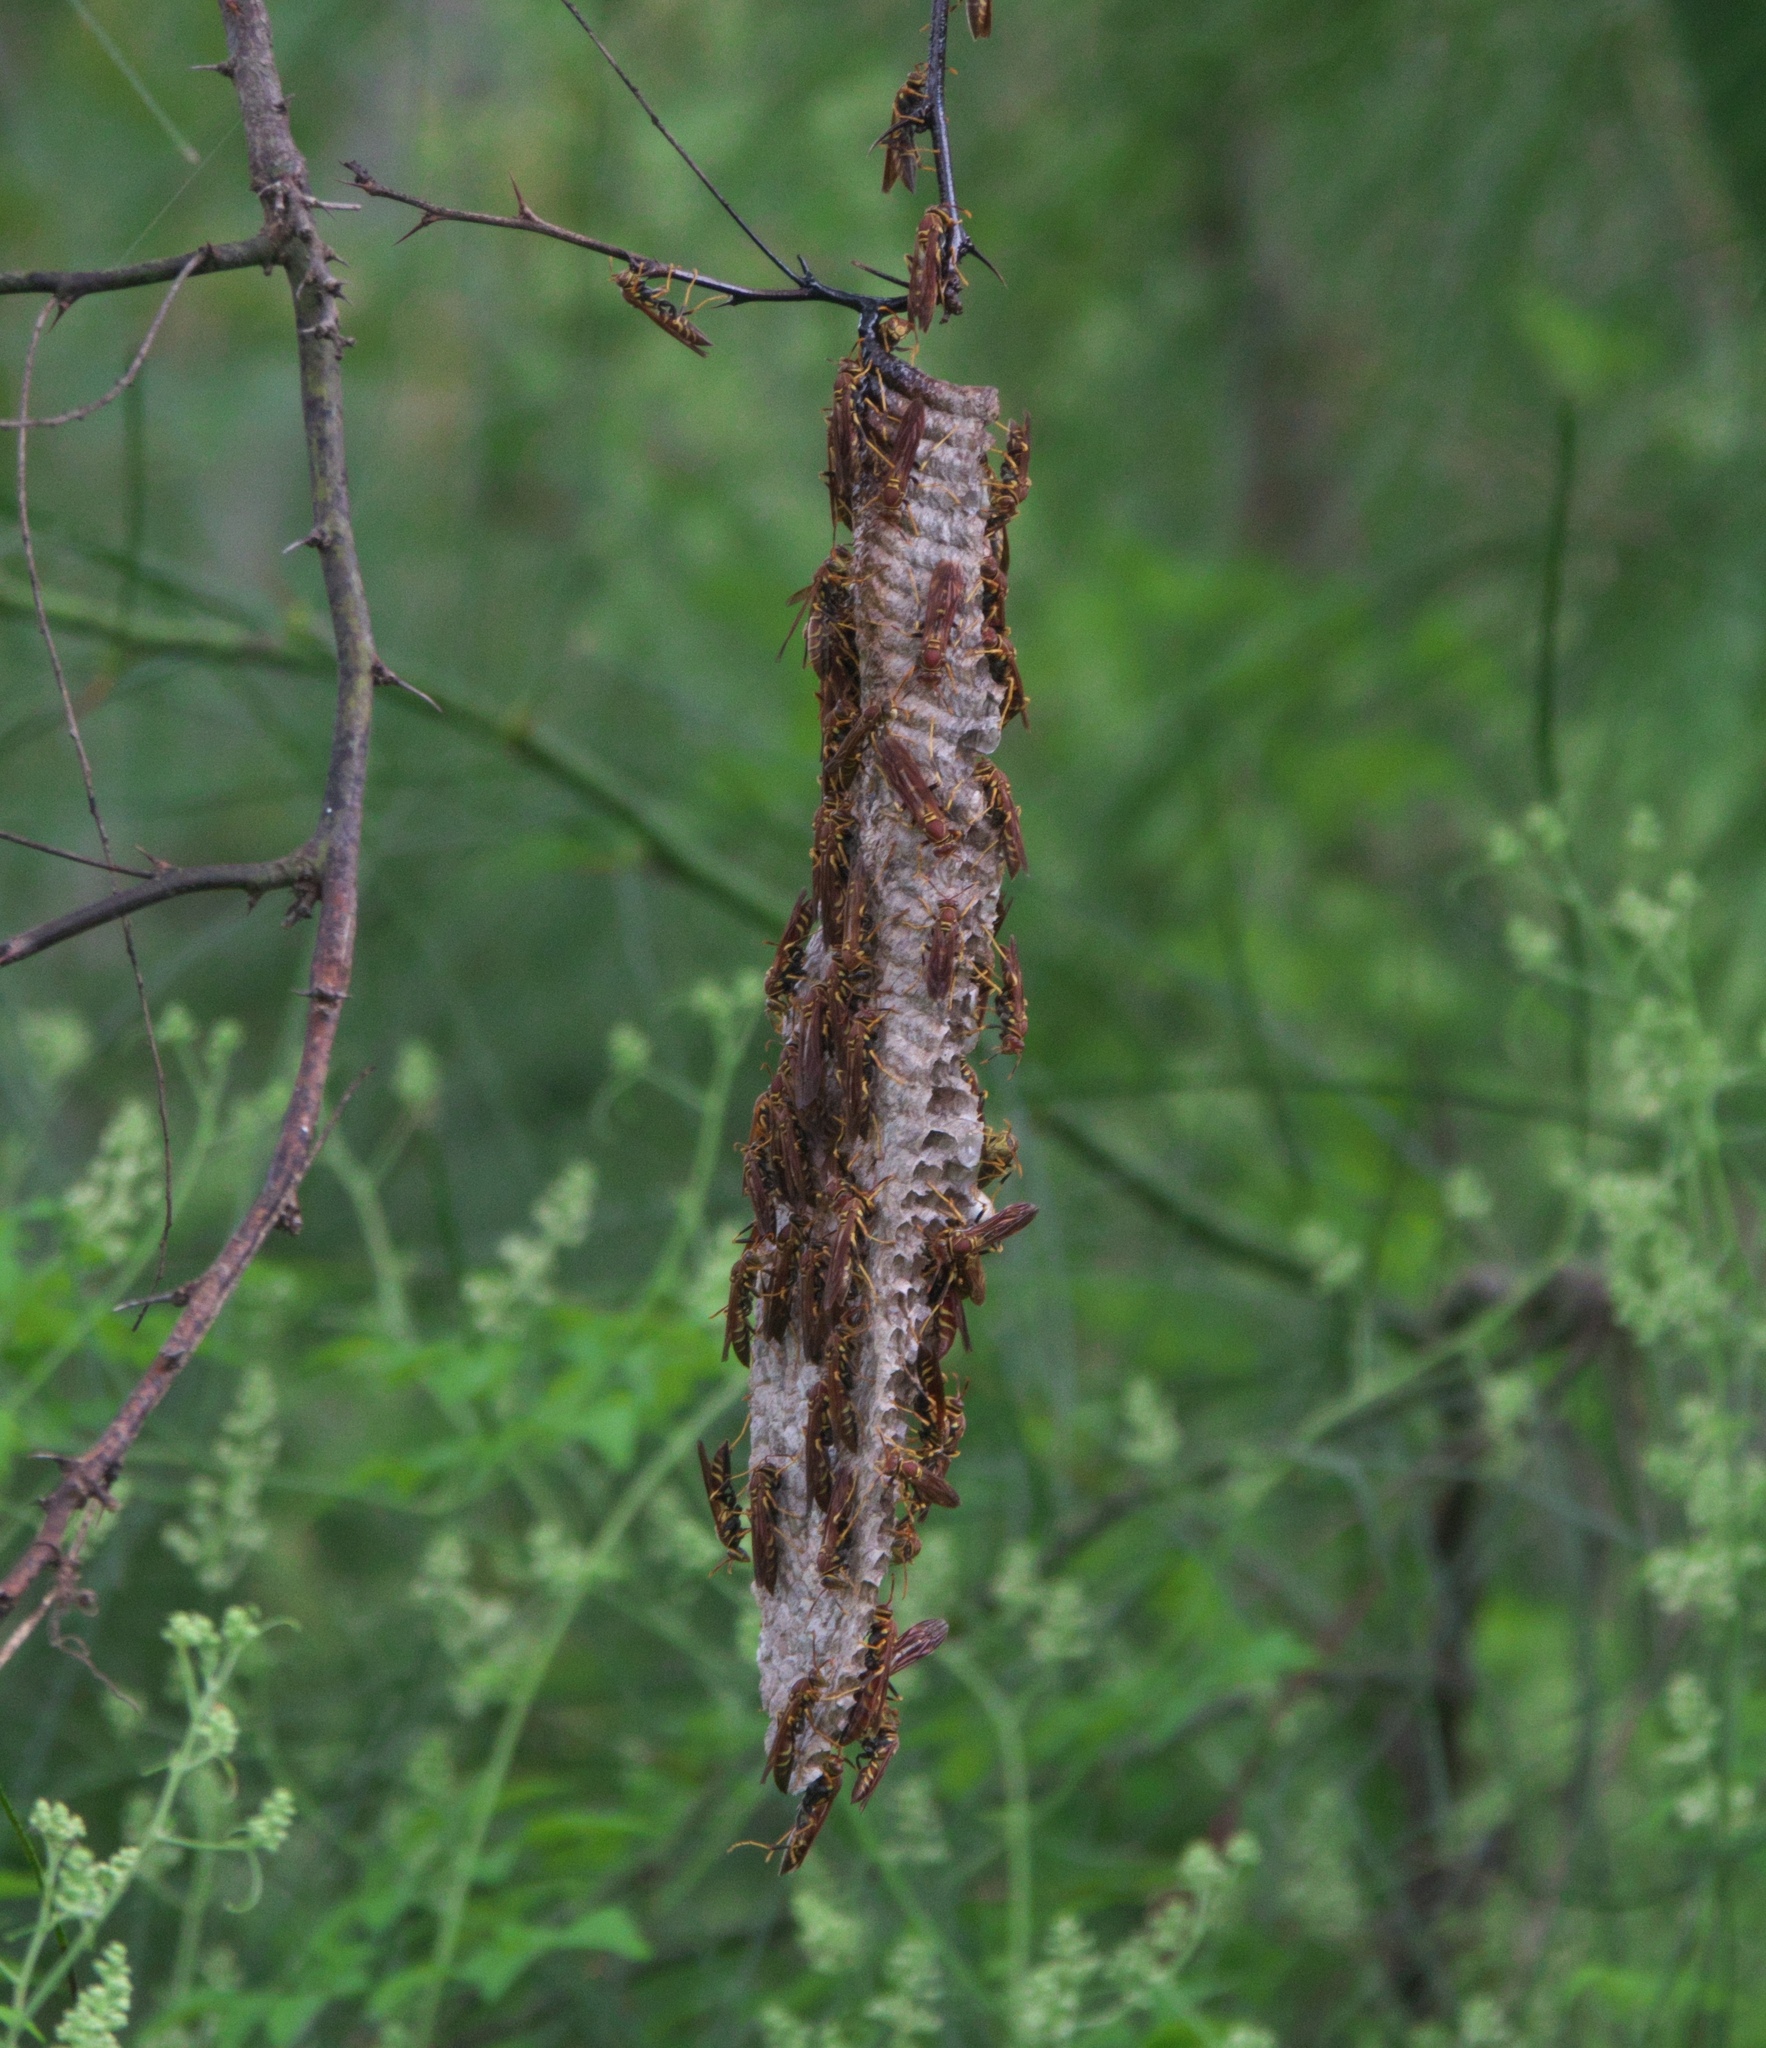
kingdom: Animalia
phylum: Arthropoda
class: Insecta
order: Hymenoptera
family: Eumenidae
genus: Polistes
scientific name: Polistes instabilis
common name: Unstable paper wasp
